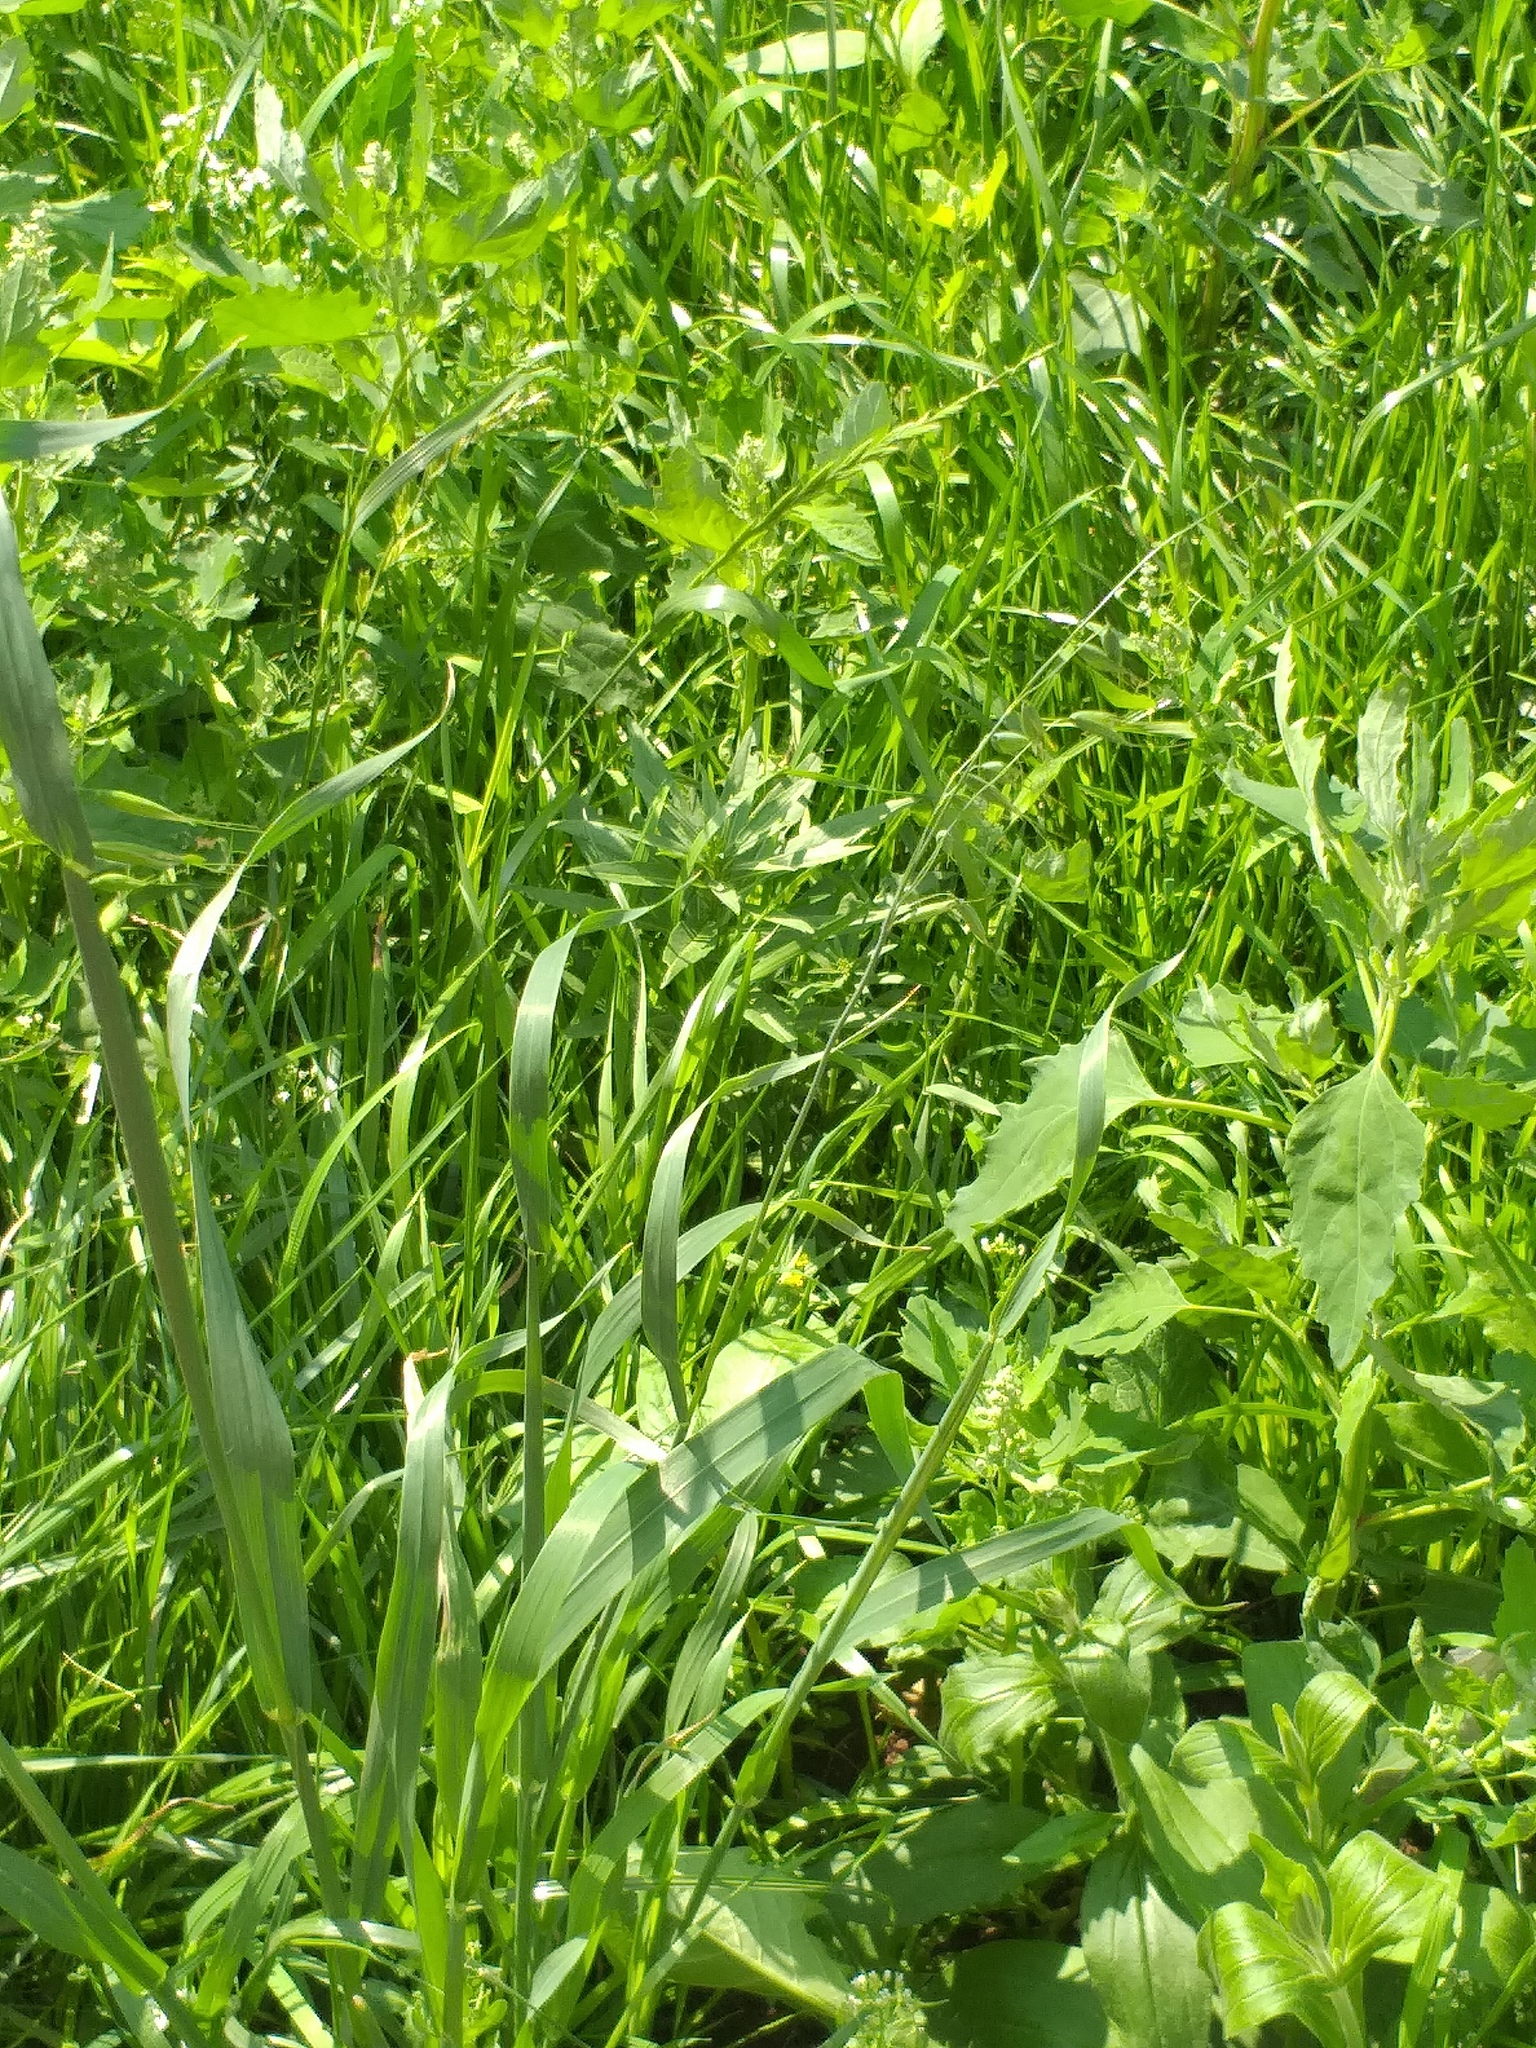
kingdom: Plantae
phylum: Tracheophyta
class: Liliopsida
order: Poales
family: Poaceae
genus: Avena
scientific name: Avena fatua
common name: Wild oat
